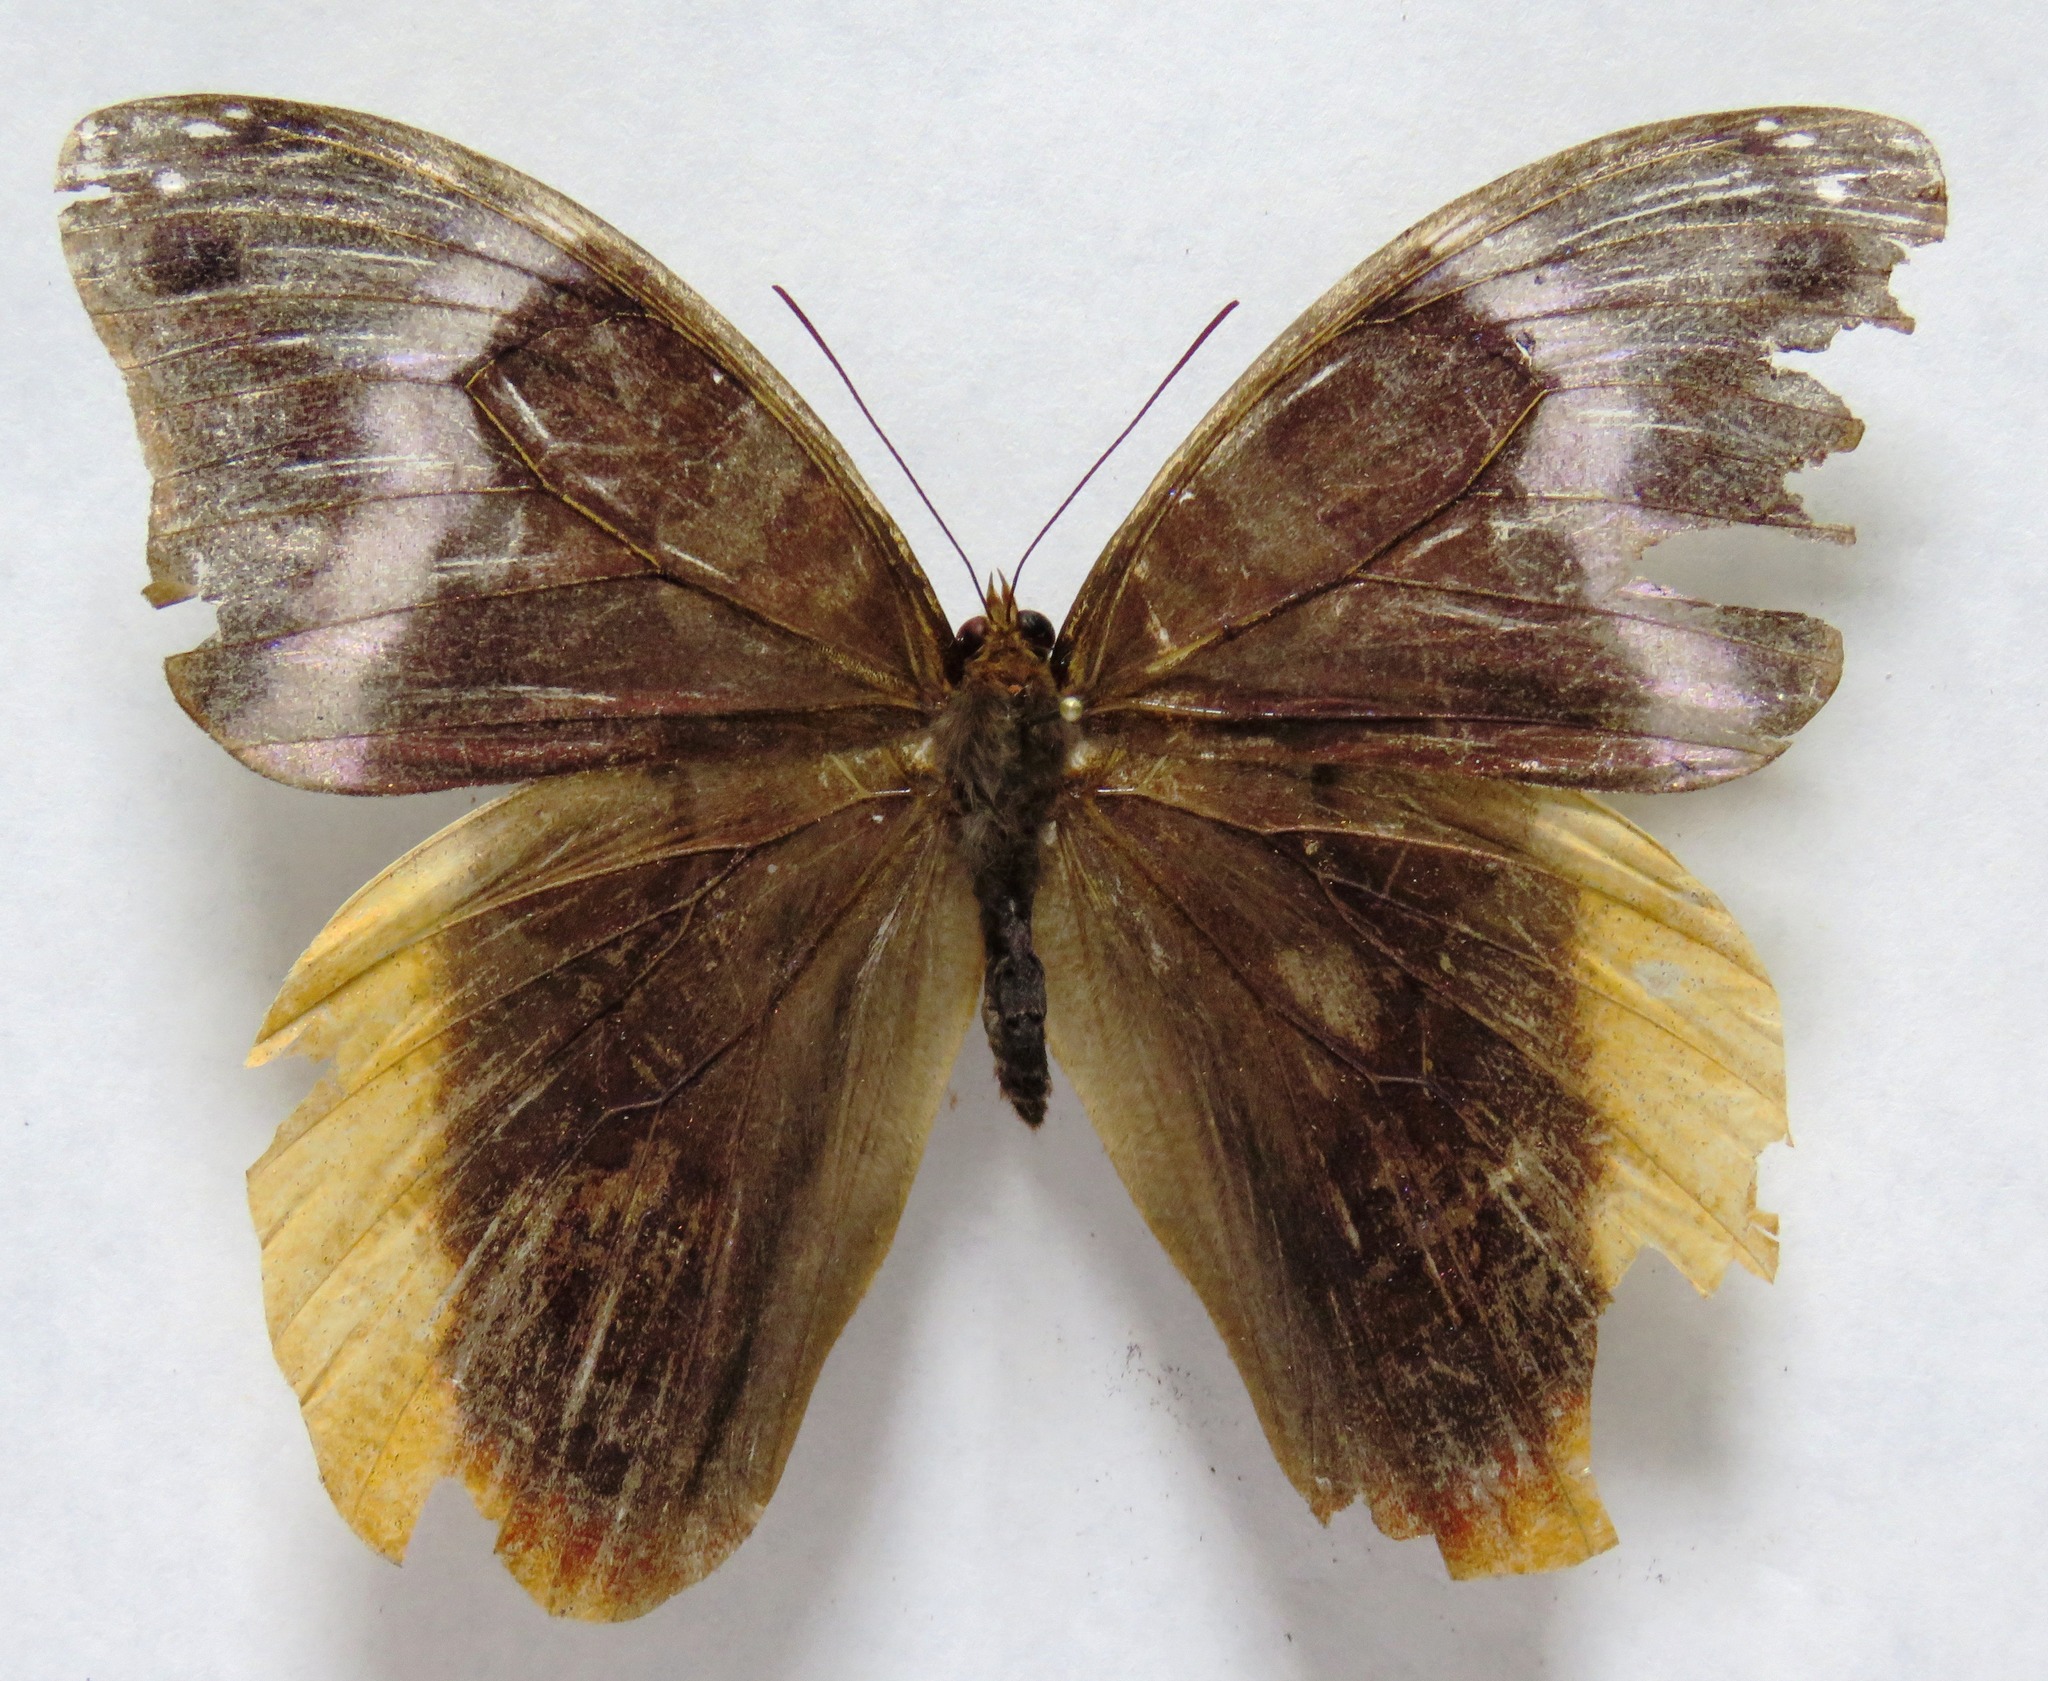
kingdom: Animalia
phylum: Arthropoda
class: Insecta
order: Lepidoptera
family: Nymphalidae
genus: Catoblepia
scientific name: Catoblepia orgetorix
